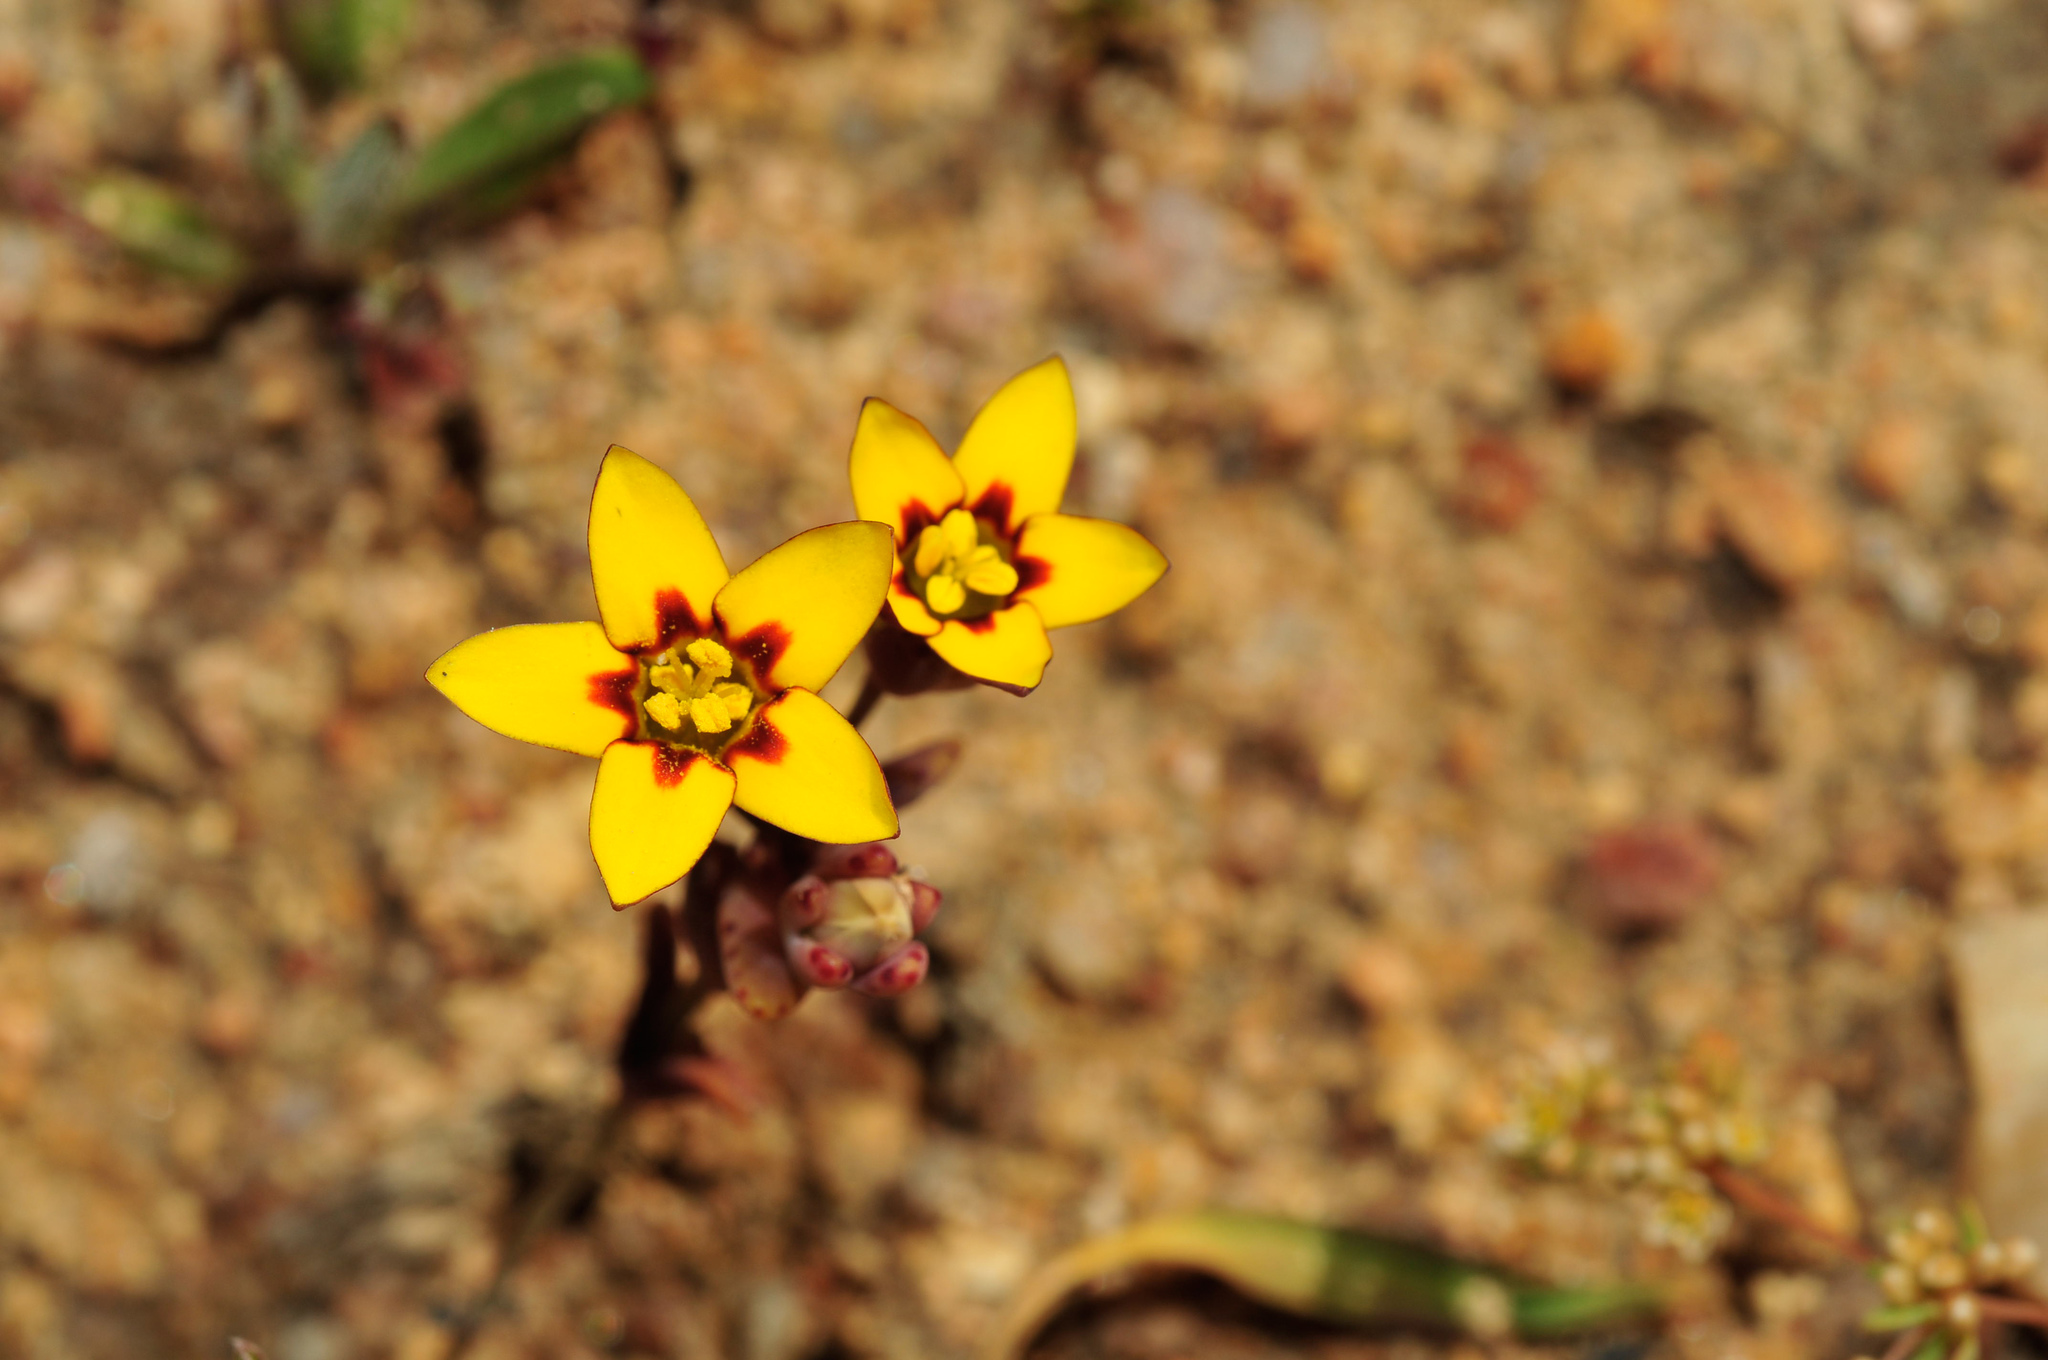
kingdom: Plantae
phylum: Tracheophyta
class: Magnoliopsida
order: Saxifragales
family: Crassulaceae
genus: Crassula
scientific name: Crassula dichotoma
